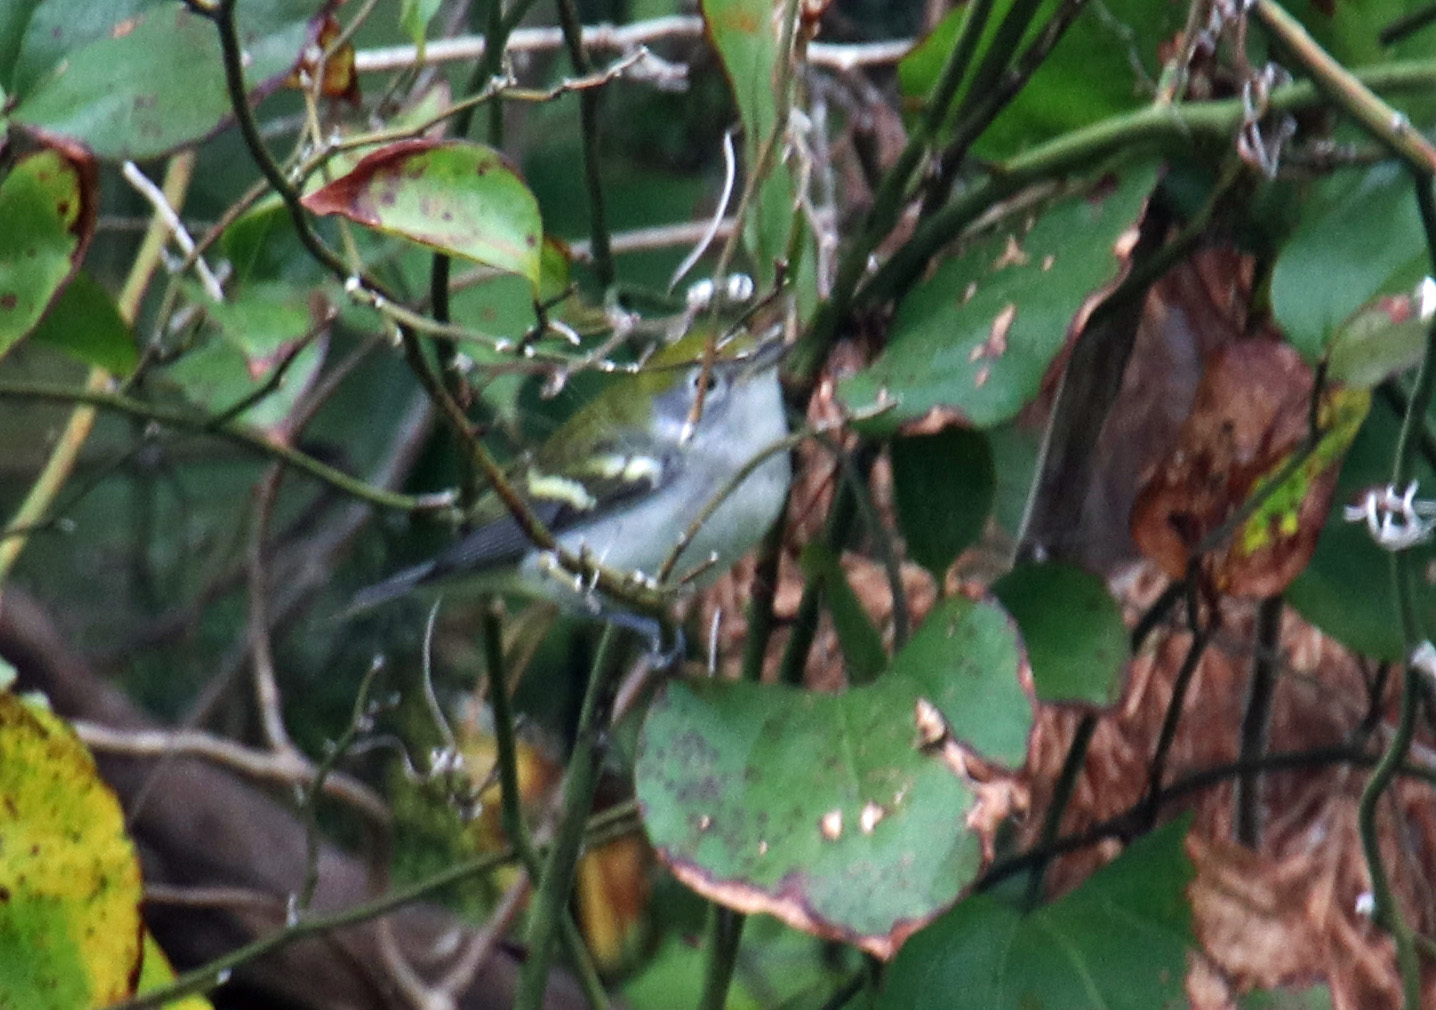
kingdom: Animalia
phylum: Chordata
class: Aves
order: Passeriformes
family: Parulidae
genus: Setophaga
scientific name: Setophaga pensylvanica
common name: Chestnut-sided warbler
